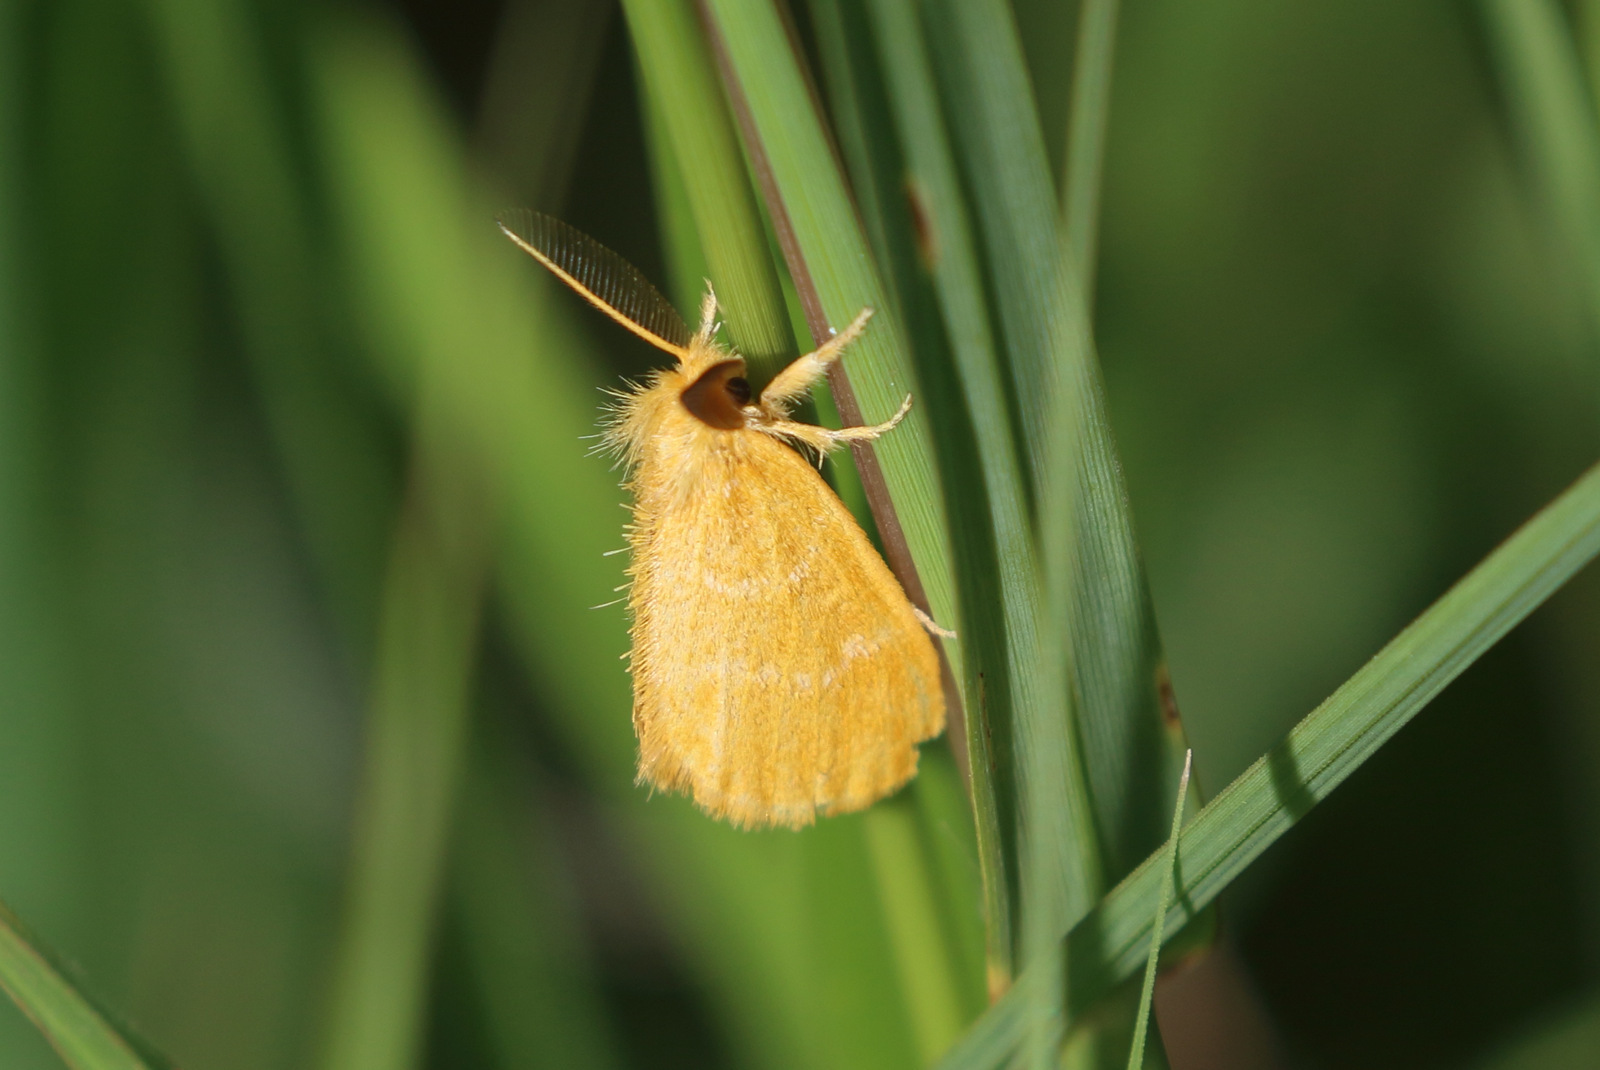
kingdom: Animalia
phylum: Arthropoda
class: Insecta
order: Lepidoptera
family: Erebidae
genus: Euproctis
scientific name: Euproctis lutea
